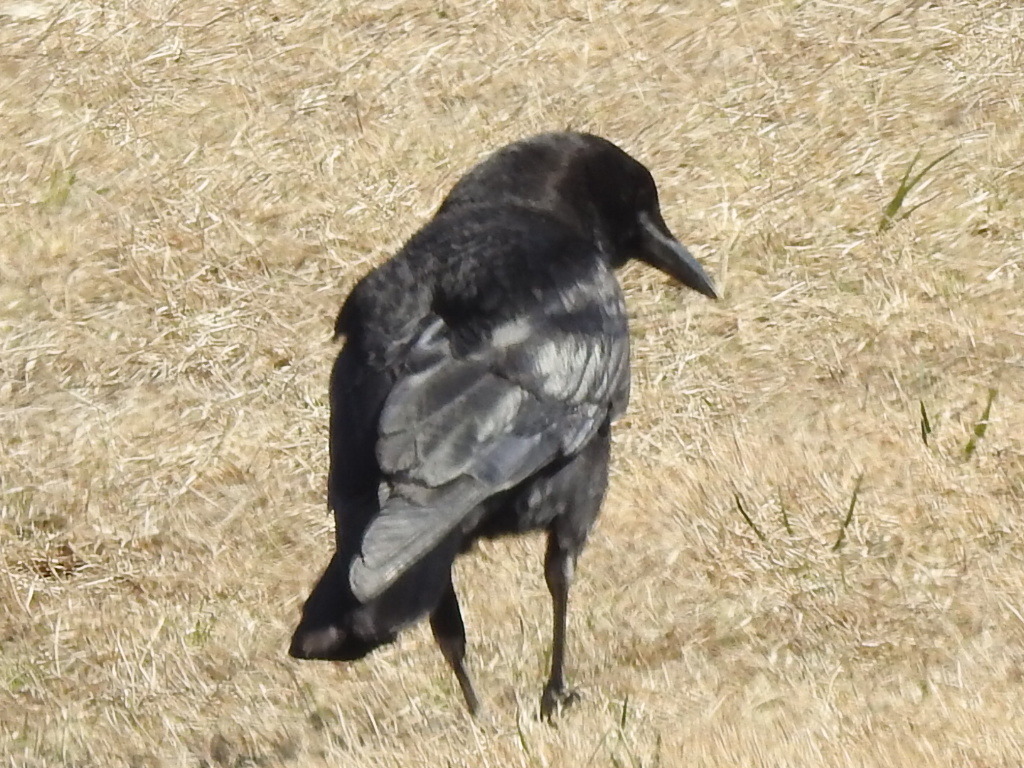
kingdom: Animalia
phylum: Chordata
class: Aves
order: Passeriformes
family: Corvidae
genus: Corvus
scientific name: Corvus brachyrhynchos
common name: American crow
